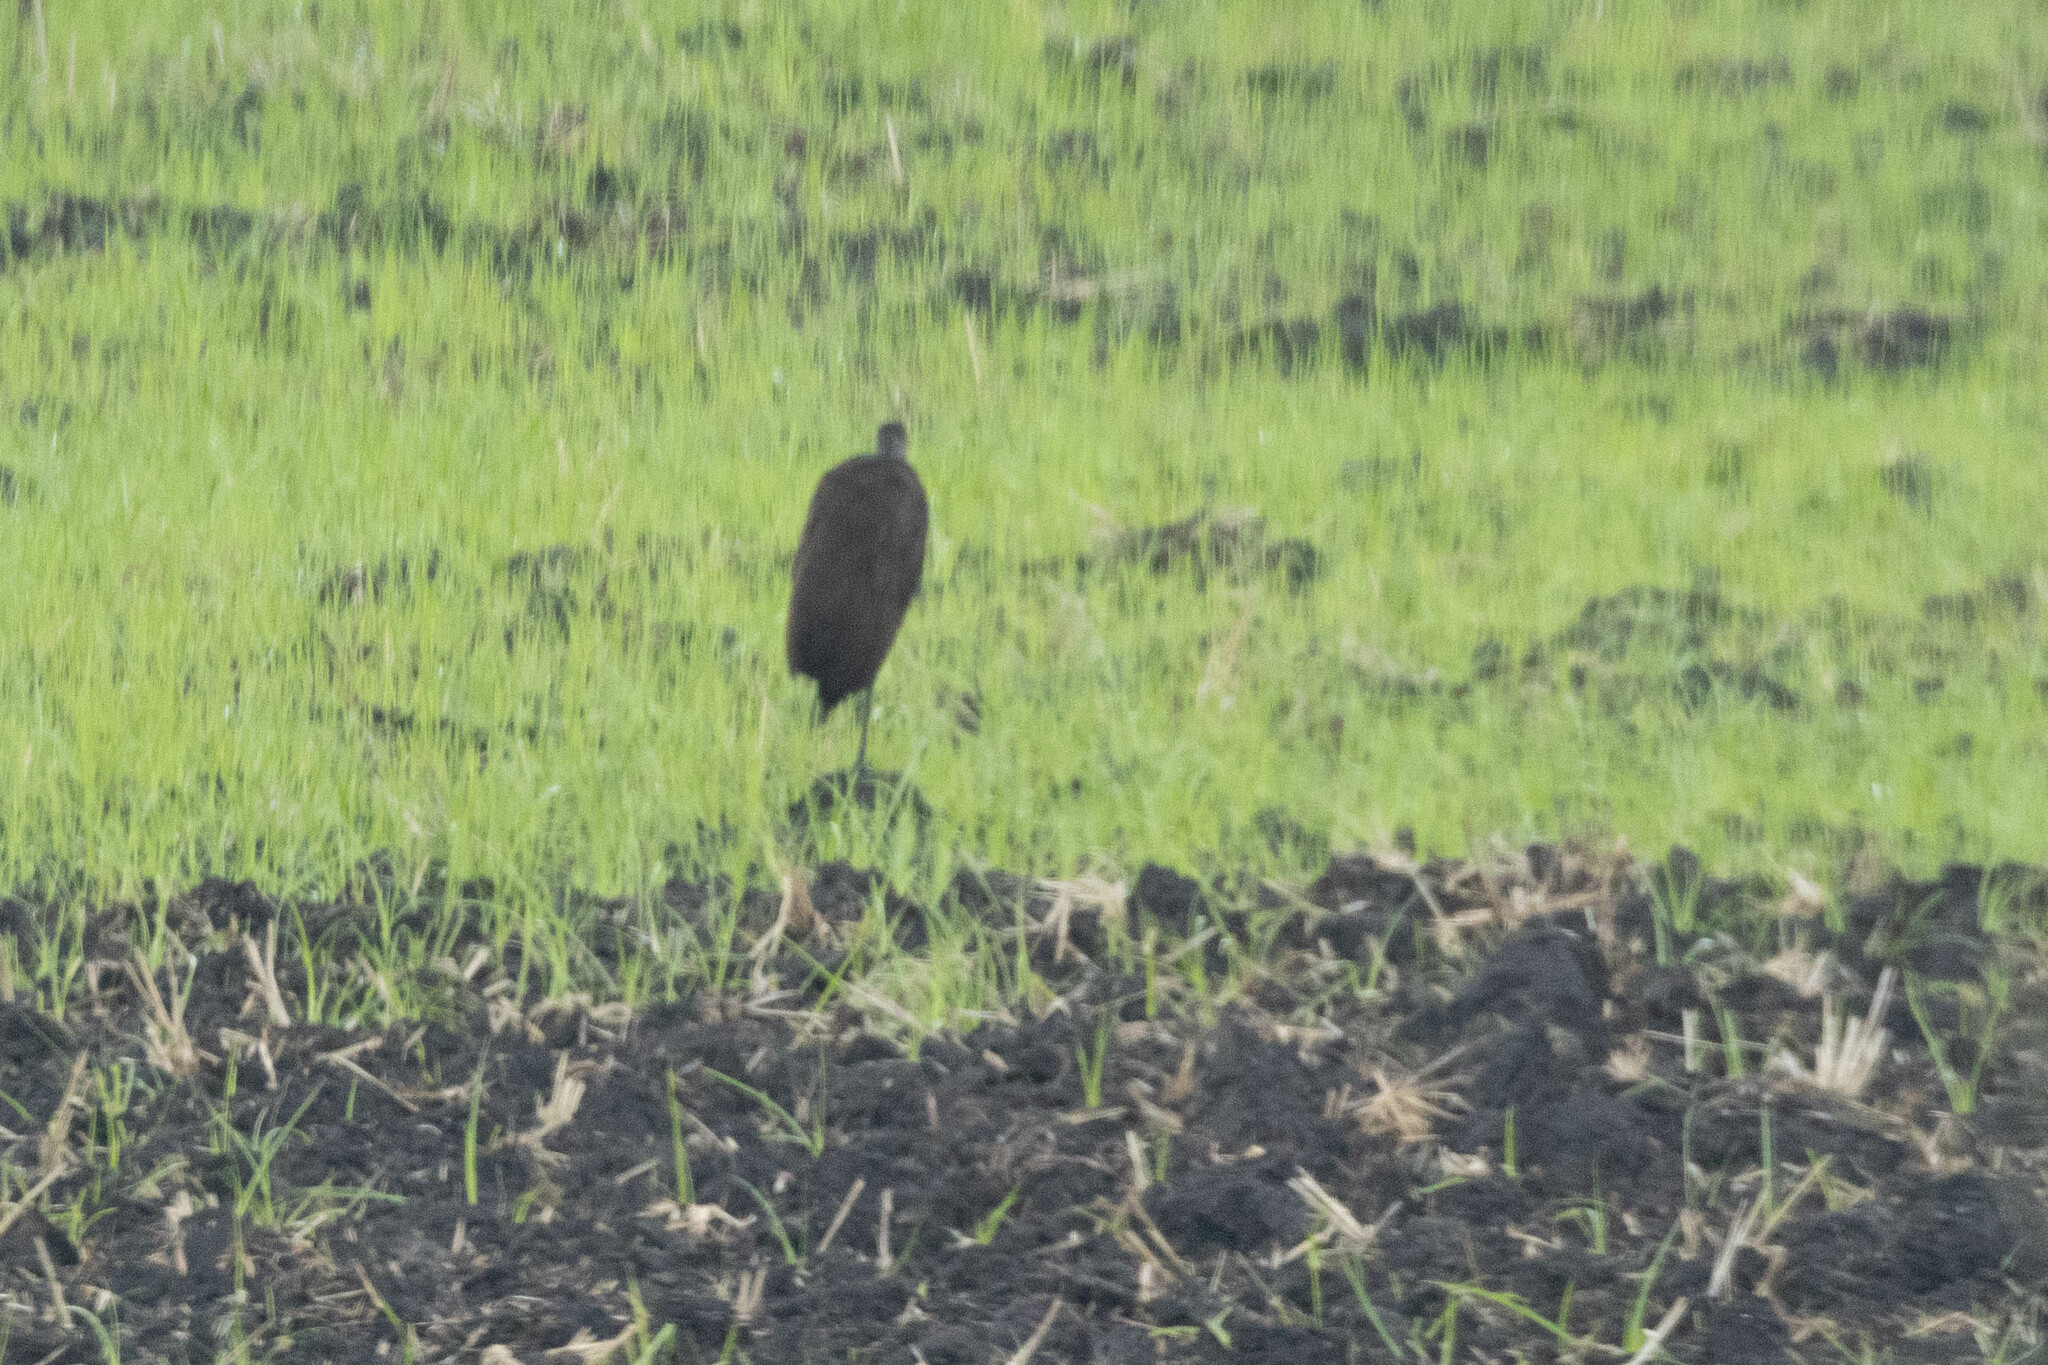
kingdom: Animalia
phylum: Chordata
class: Aves
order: Gruiformes
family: Aramidae
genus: Aramus
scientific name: Aramus guarauna
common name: Limpkin
